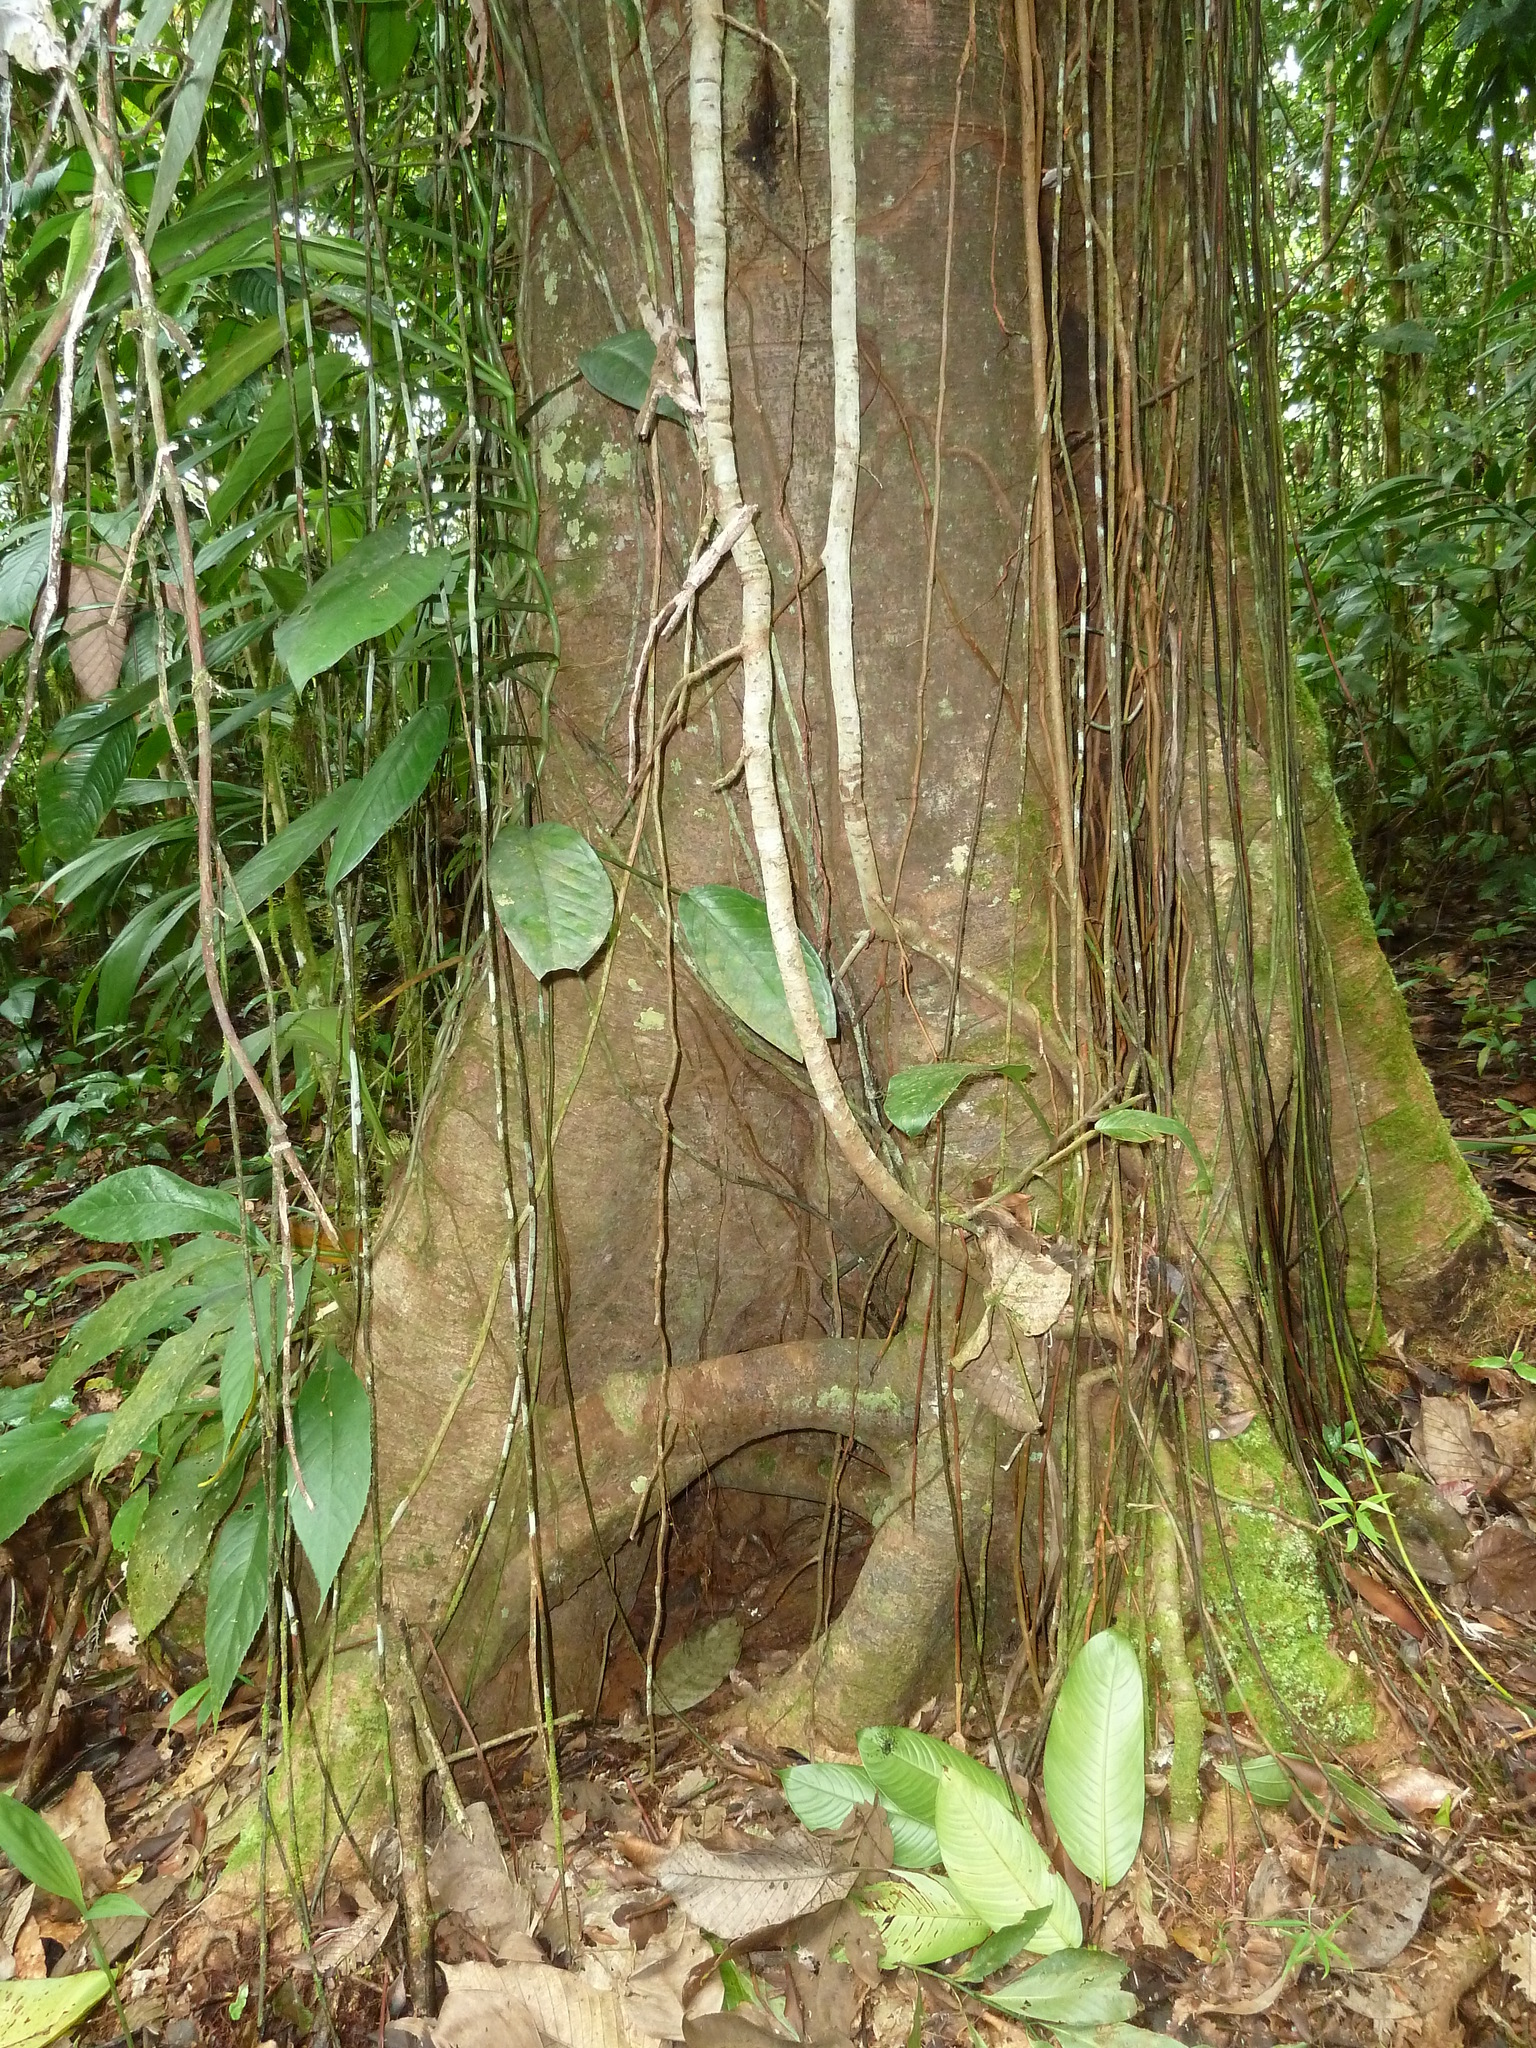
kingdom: Plantae
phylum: Tracheophyta
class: Magnoliopsida
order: Rosales
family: Moraceae
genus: Brosimum
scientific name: Brosimum utile
